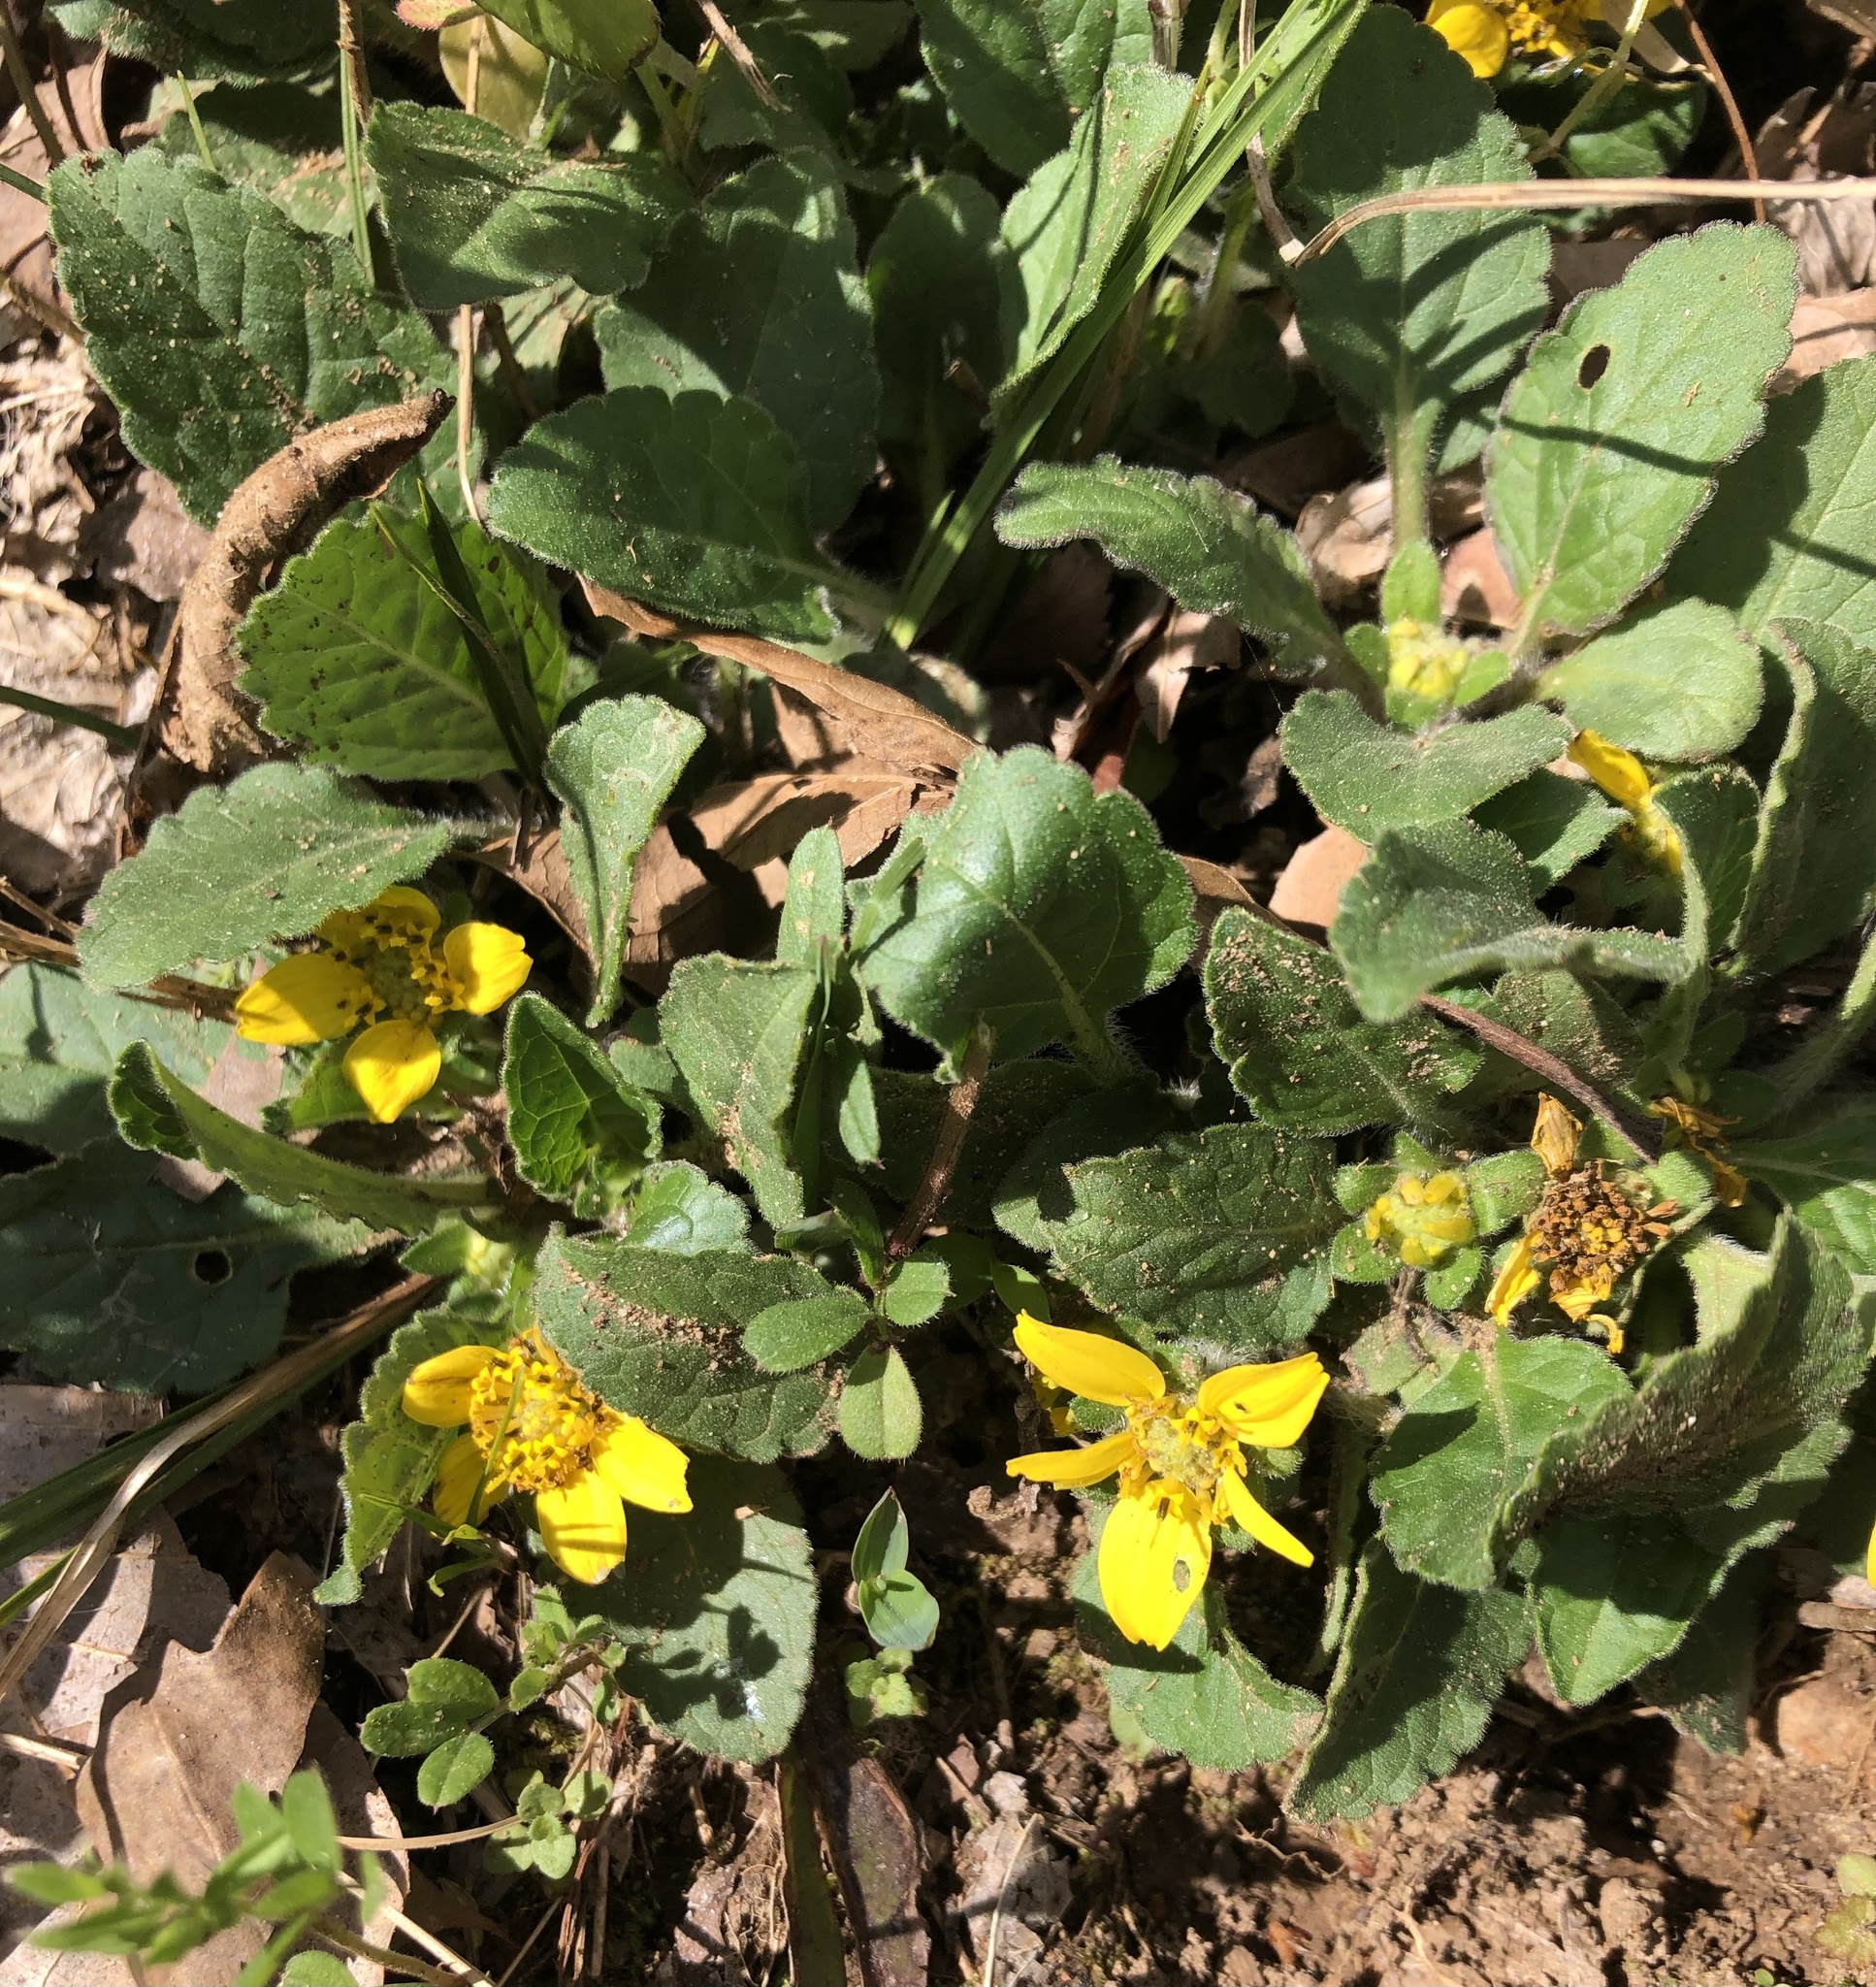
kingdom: Plantae
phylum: Tracheophyta
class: Magnoliopsida
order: Asterales
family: Asteraceae
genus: Chrysogonum
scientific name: Chrysogonum virginianum
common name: Golden-knee
